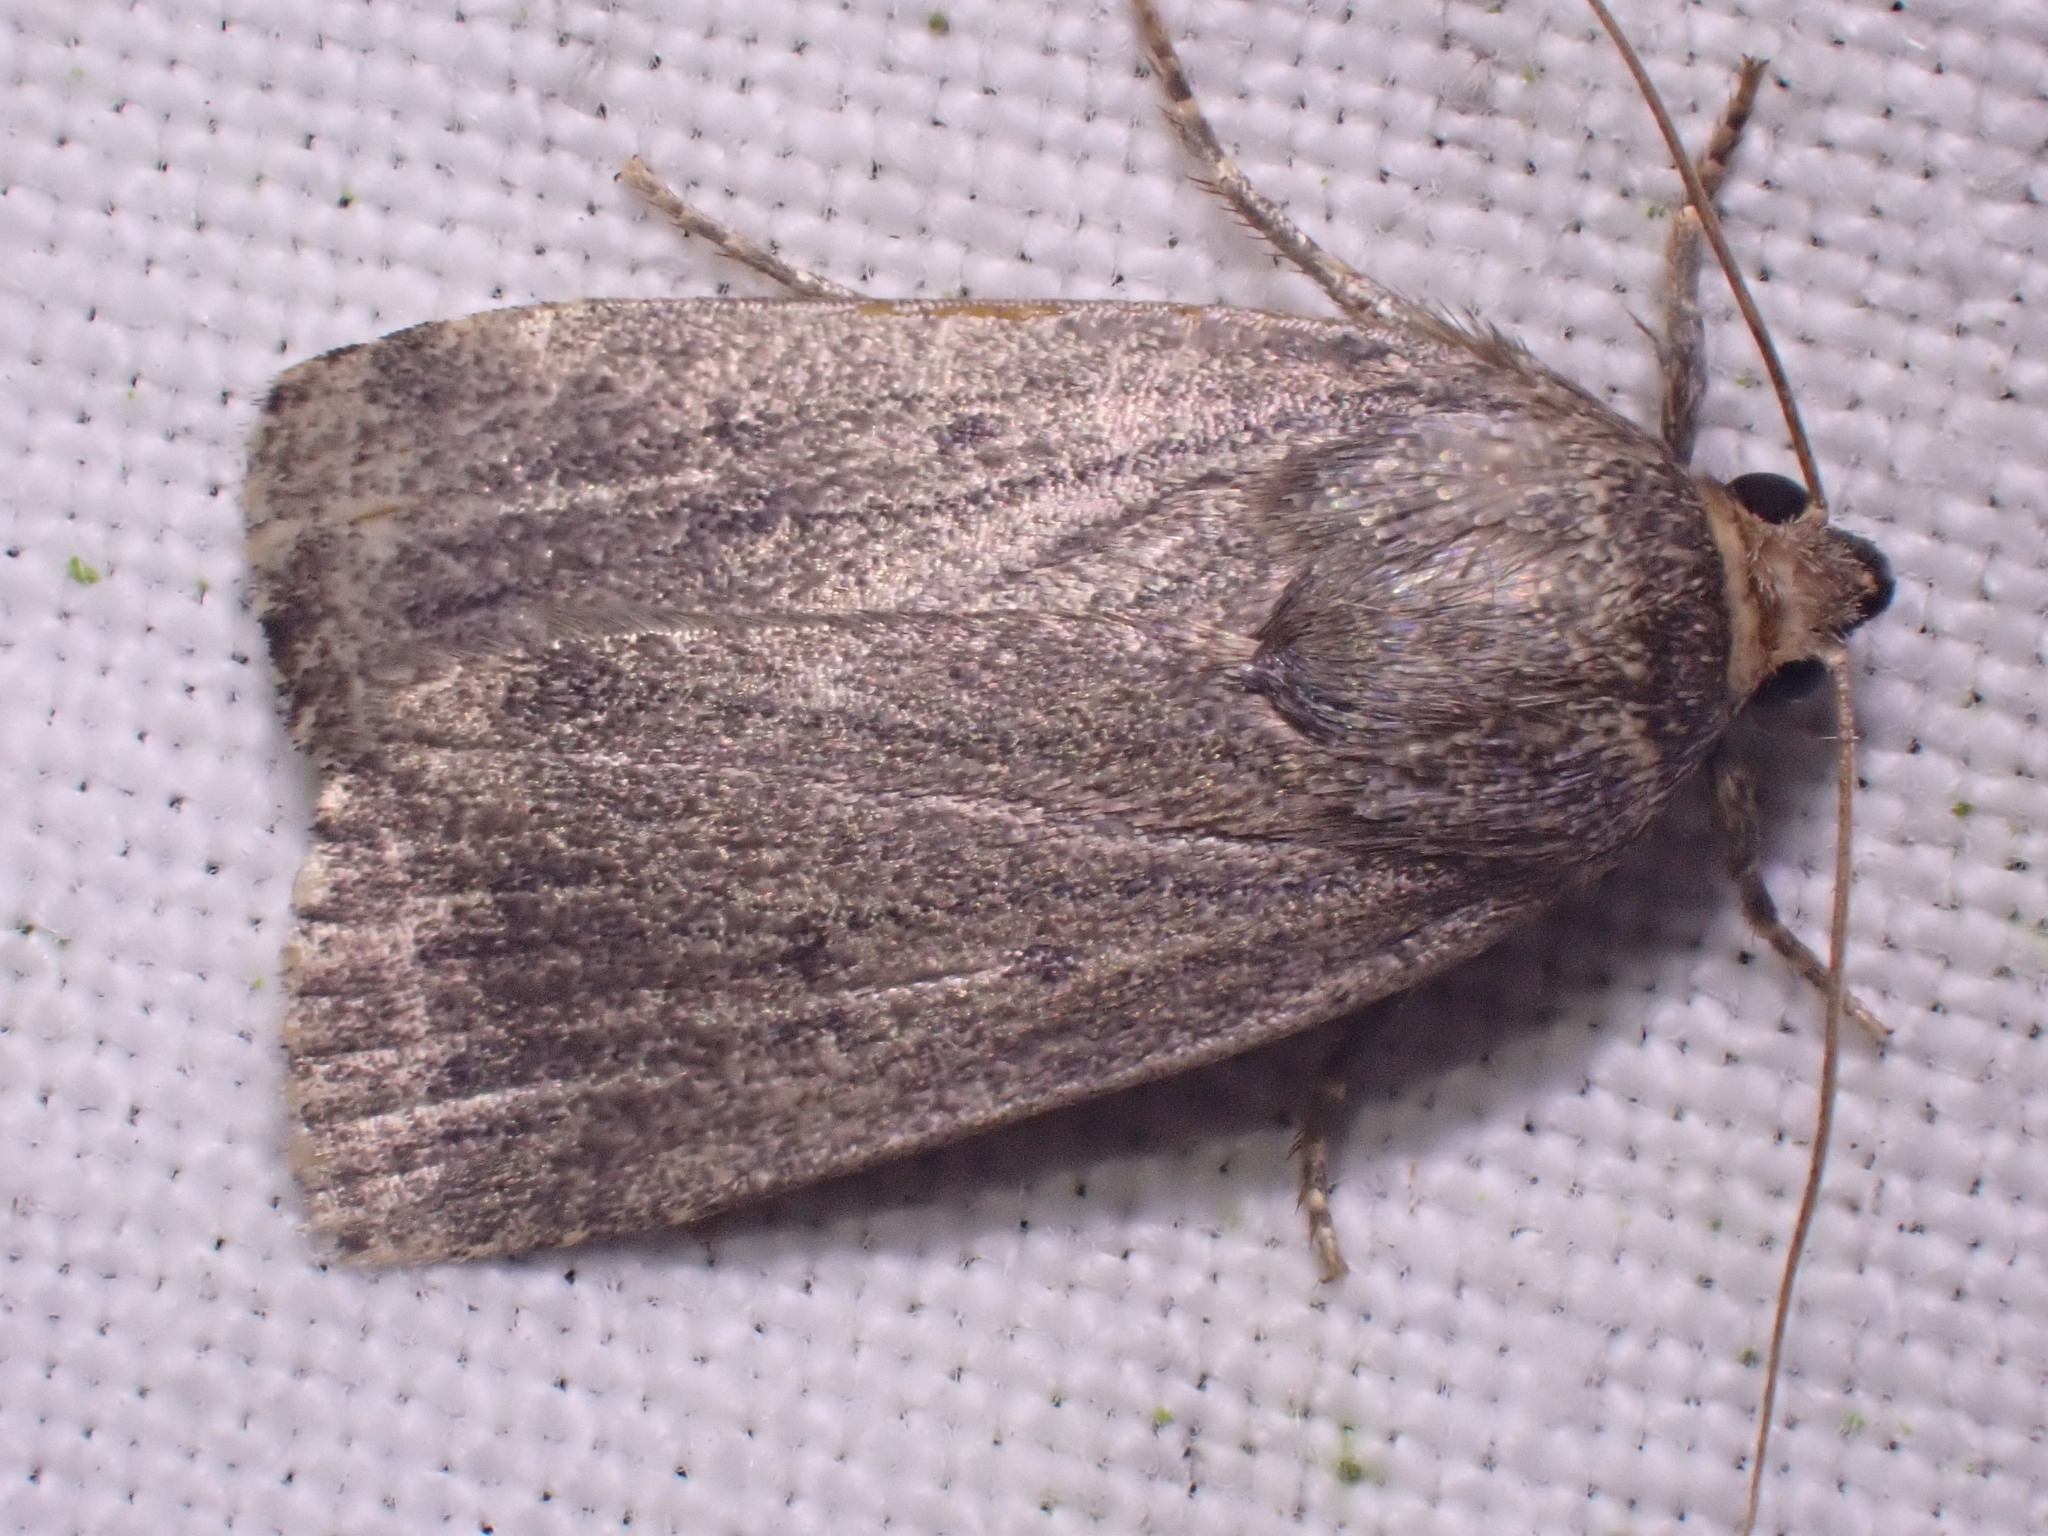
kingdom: Animalia
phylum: Arthropoda
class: Insecta
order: Lepidoptera
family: Noctuidae
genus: Amphipyra
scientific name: Amphipyra tragopoginis
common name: Mouse moth
